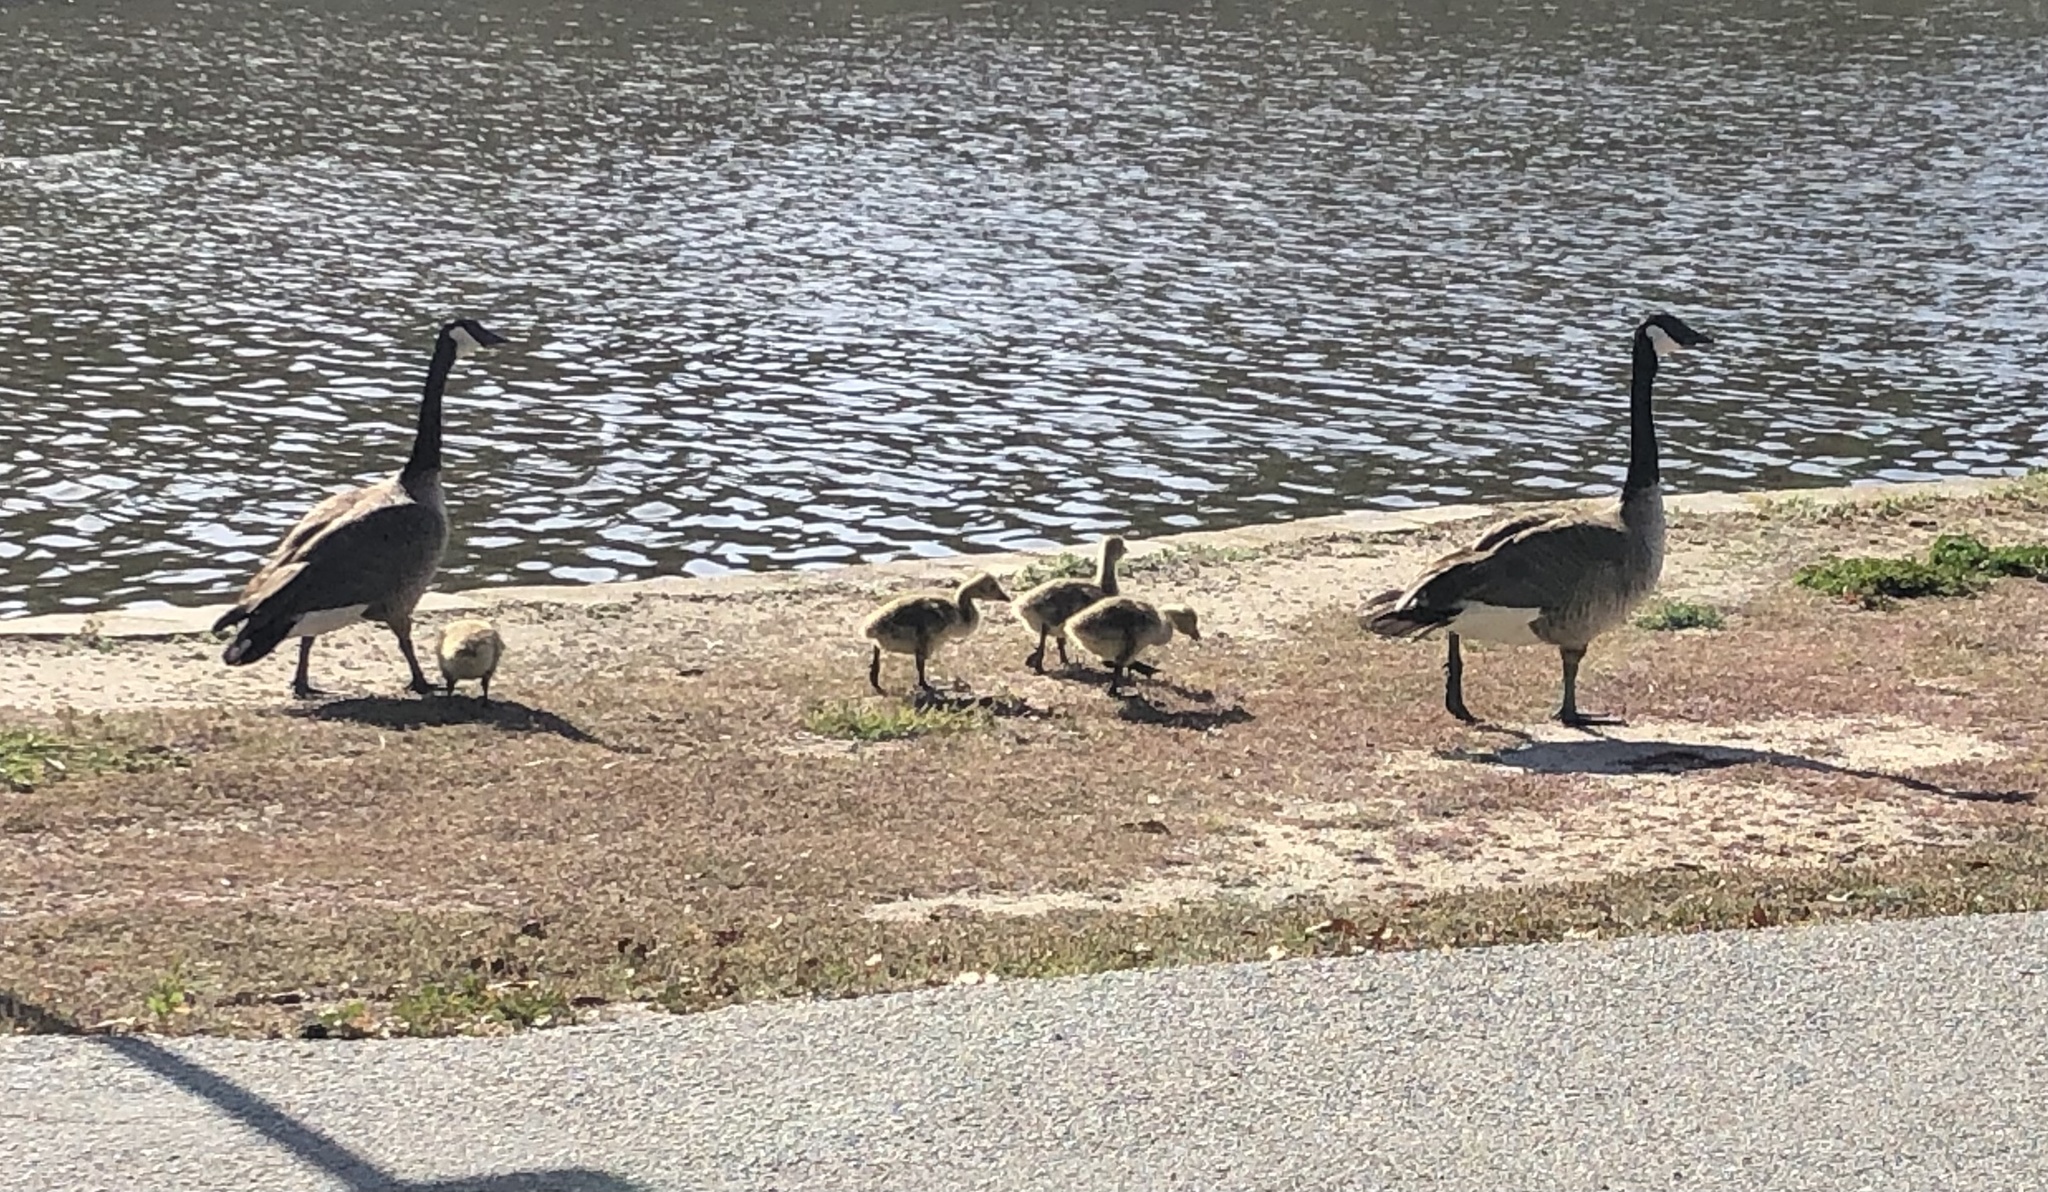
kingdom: Animalia
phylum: Chordata
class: Aves
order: Anseriformes
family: Anatidae
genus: Branta
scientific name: Branta canadensis
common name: Canada goose
